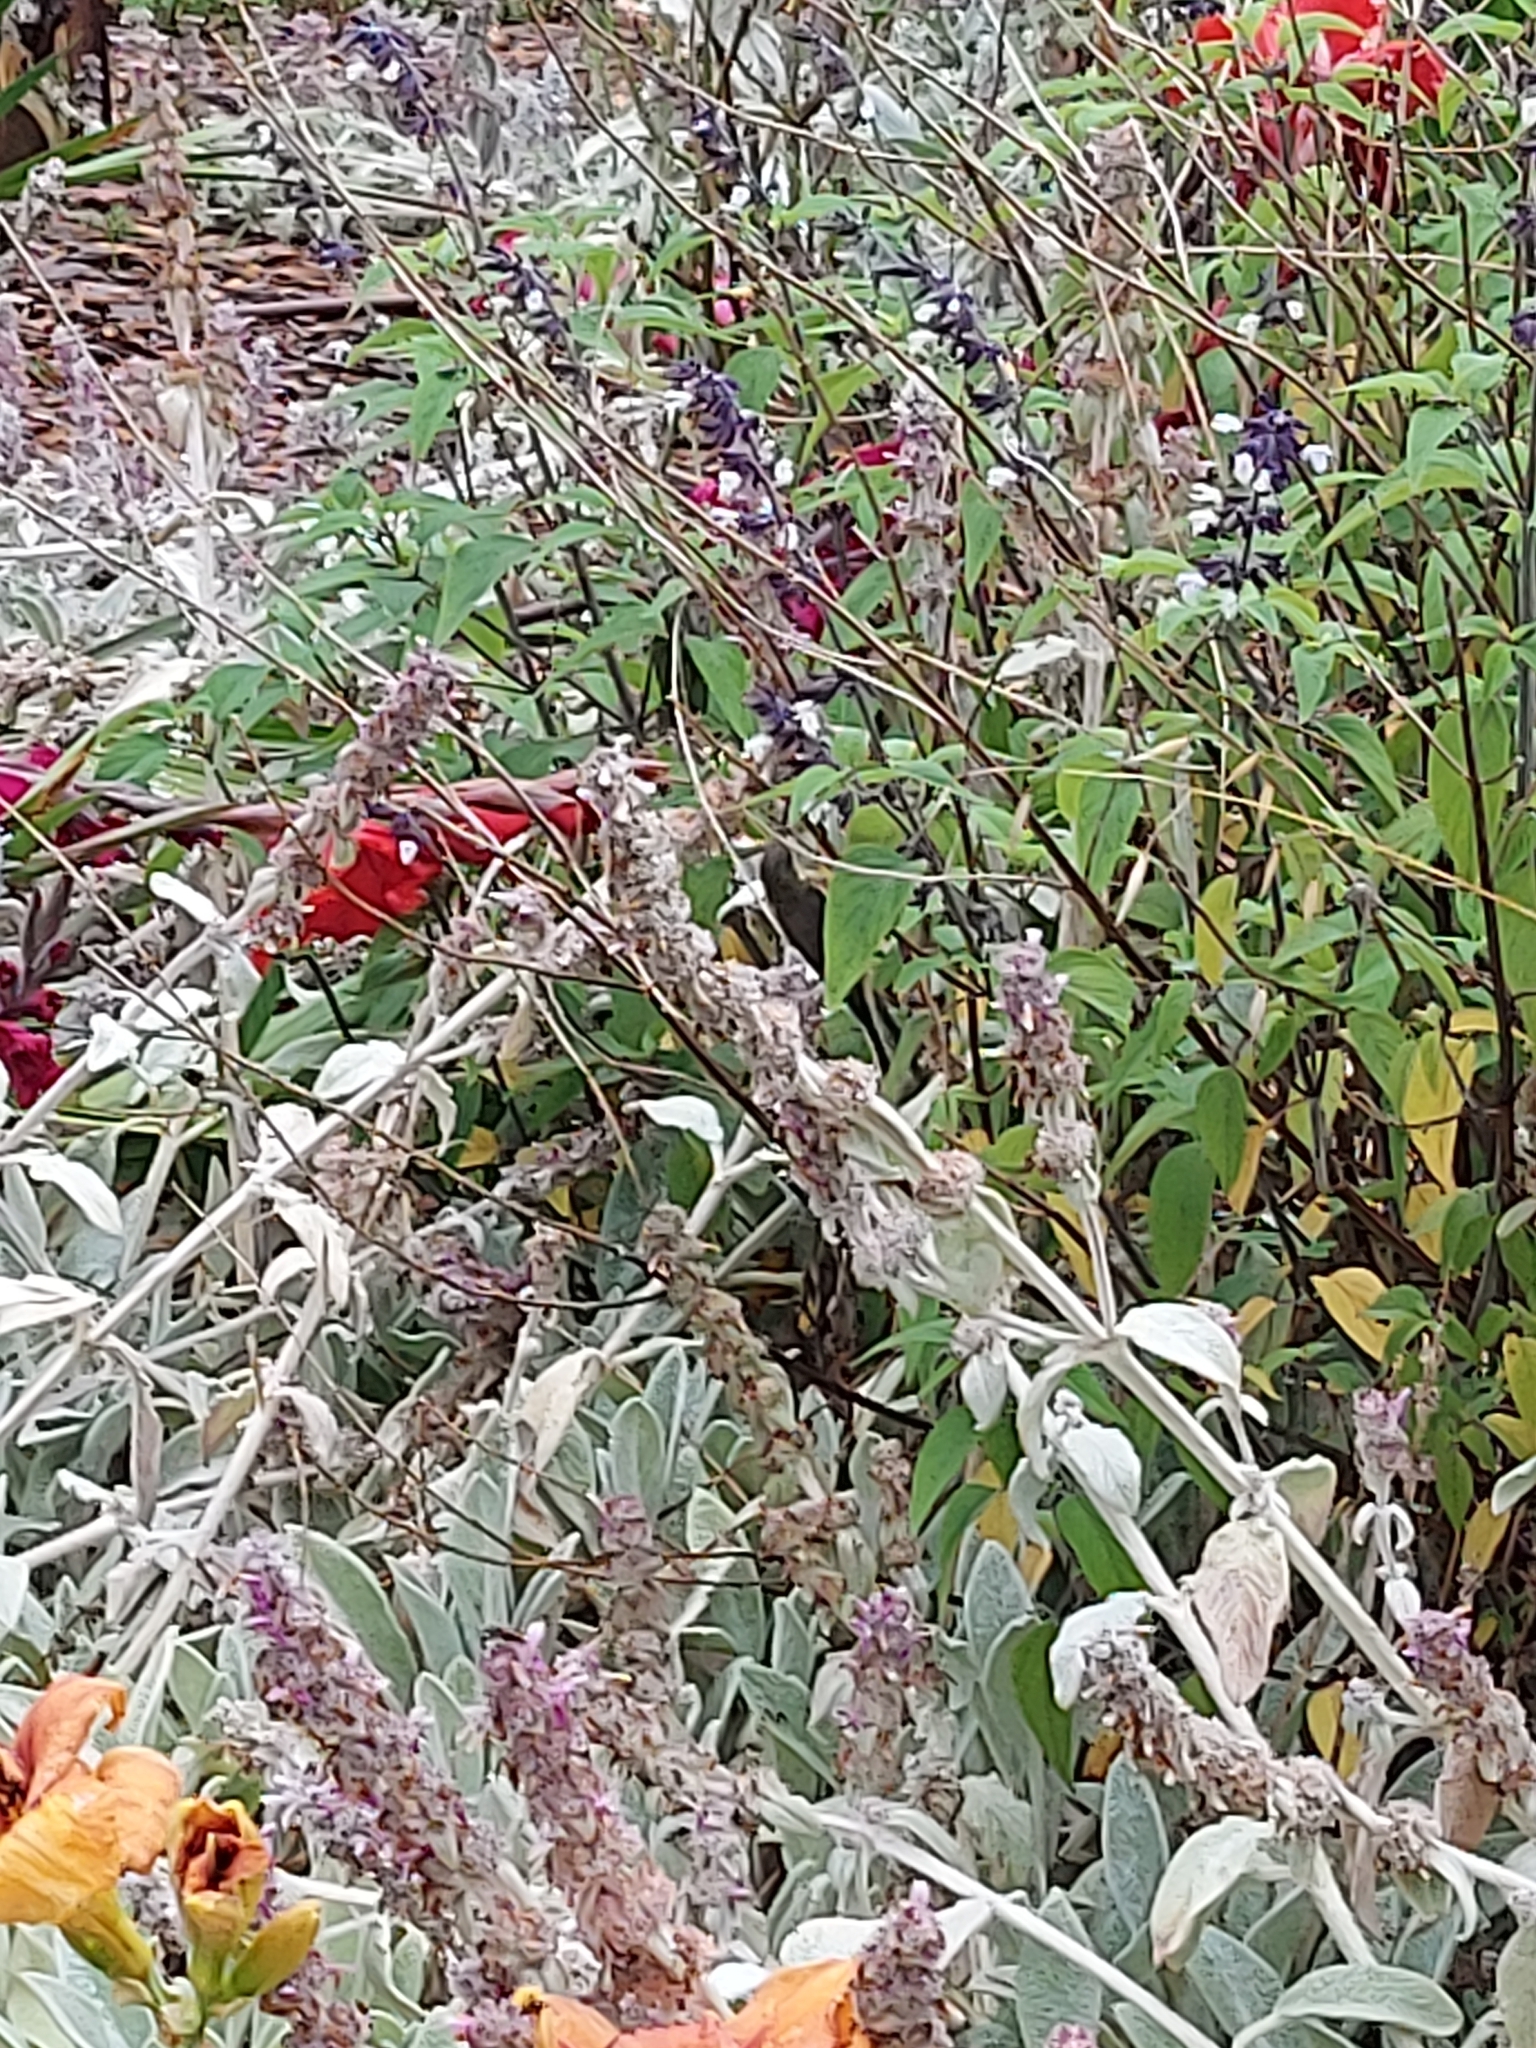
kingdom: Animalia
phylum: Chordata
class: Aves
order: Passeriformes
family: Meliphagidae
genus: Acanthorhynchus
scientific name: Acanthorhynchus tenuirostris
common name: Eastern spinebill
